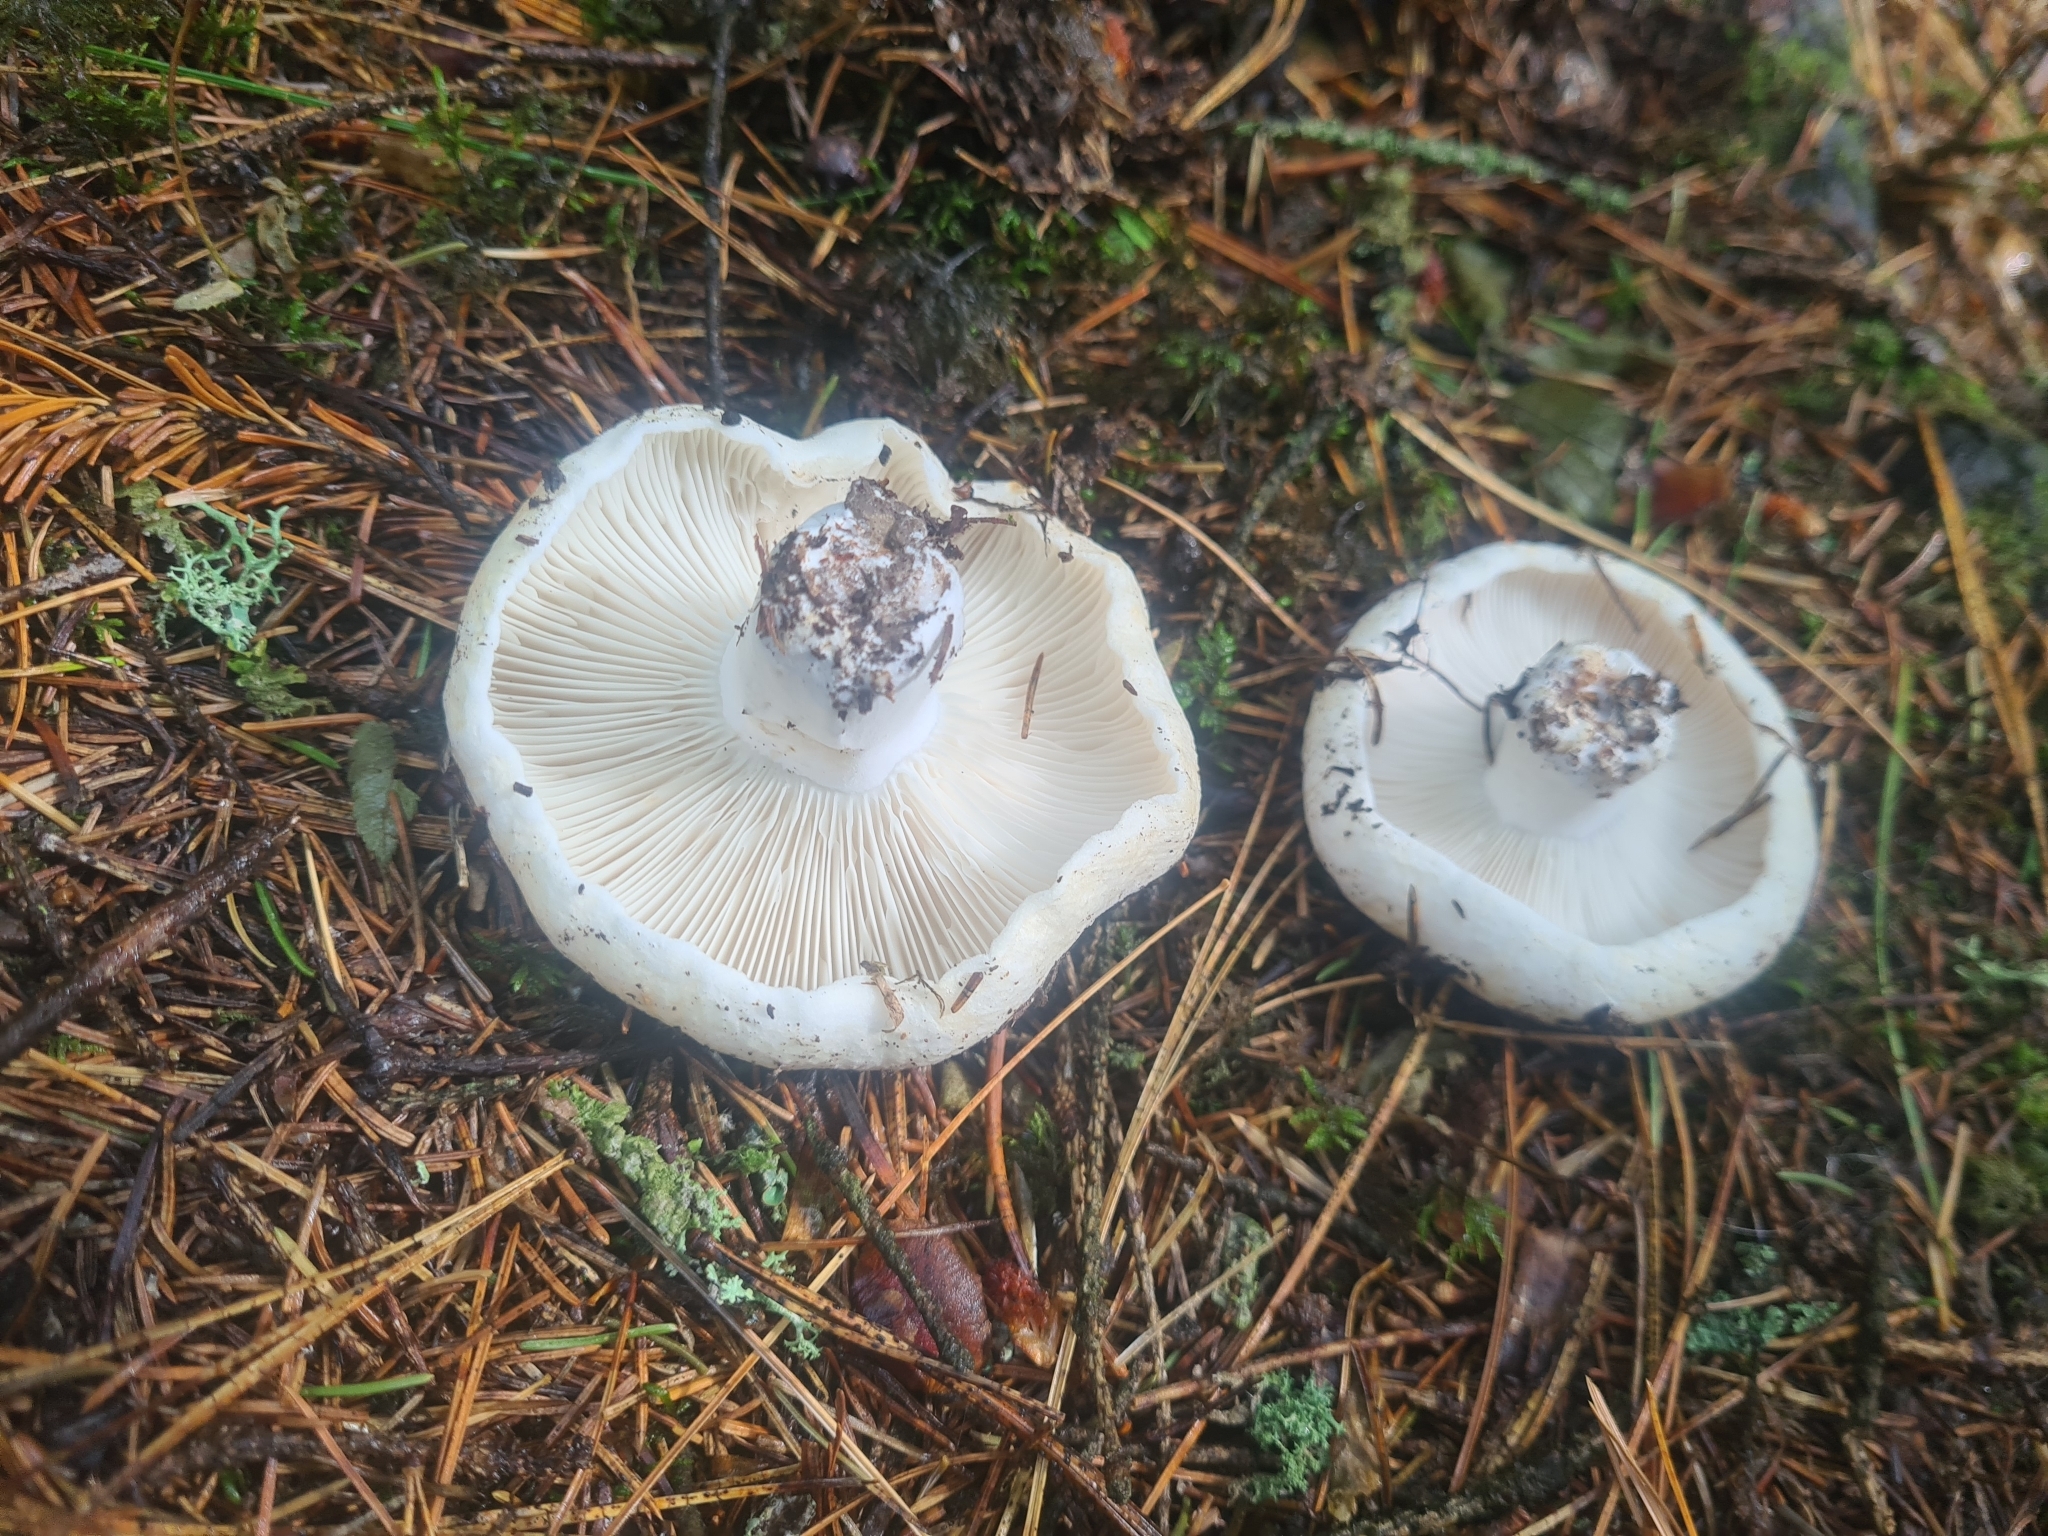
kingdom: Fungi
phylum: Basidiomycota
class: Agaricomycetes
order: Russulales
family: Russulaceae
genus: Russula
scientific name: Russula delica
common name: Milk white brittlegill
